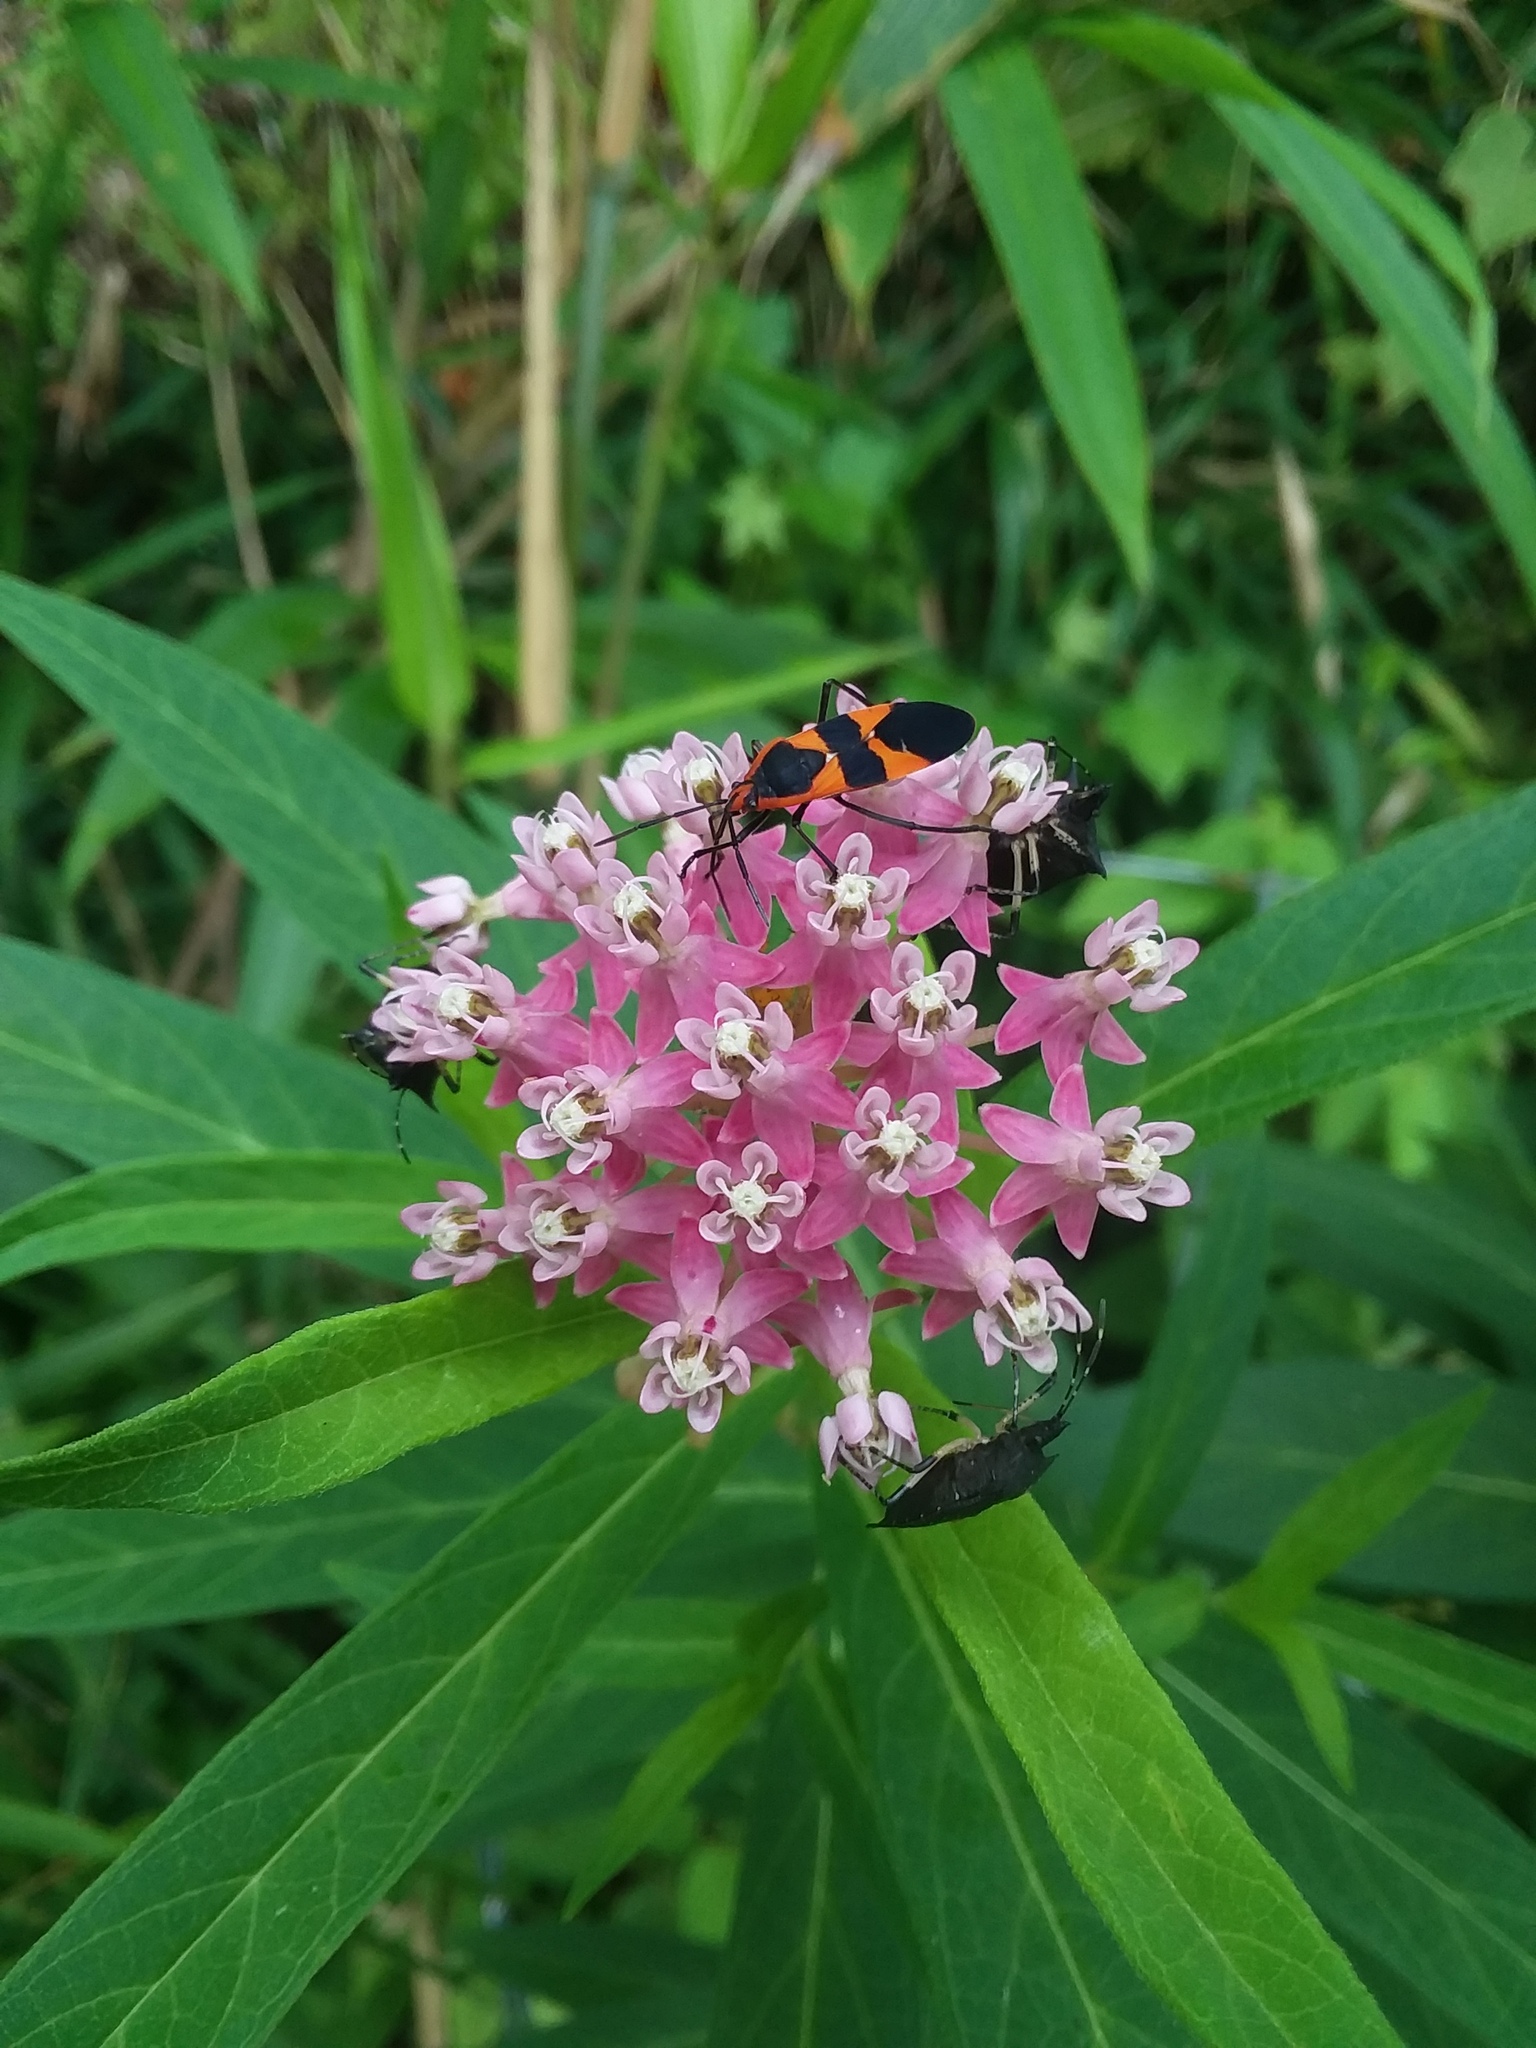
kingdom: Animalia
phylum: Arthropoda
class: Insecta
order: Hemiptera
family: Lygaeidae
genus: Oncopeltus
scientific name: Oncopeltus fasciatus
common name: Large milkweed bug
